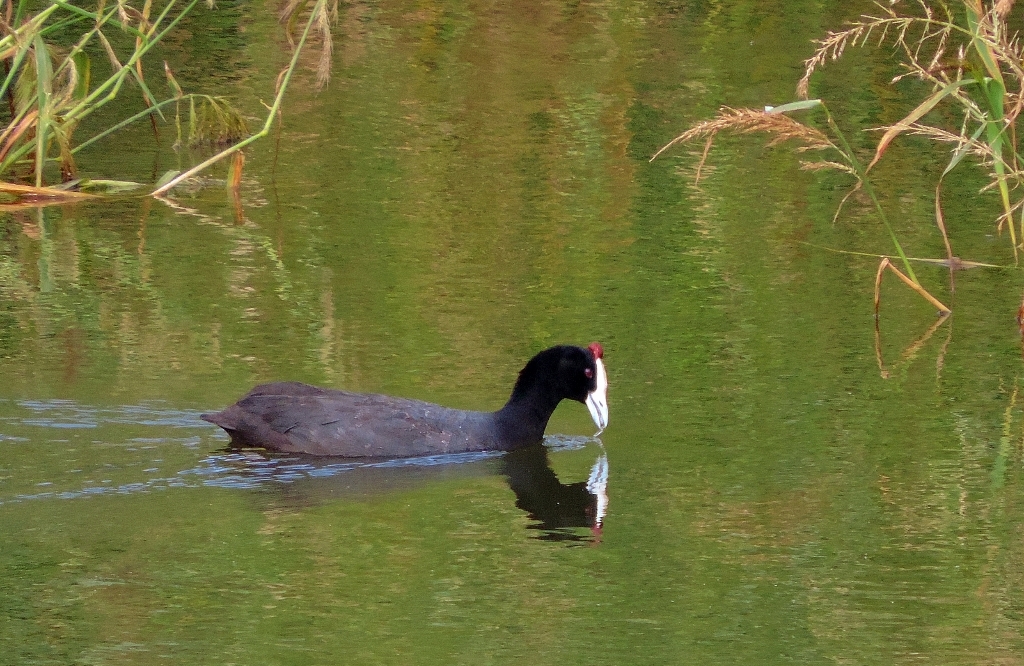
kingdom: Animalia
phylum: Chordata
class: Aves
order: Gruiformes
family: Rallidae
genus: Fulica
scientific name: Fulica cristata
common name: Red-knobbed coot
